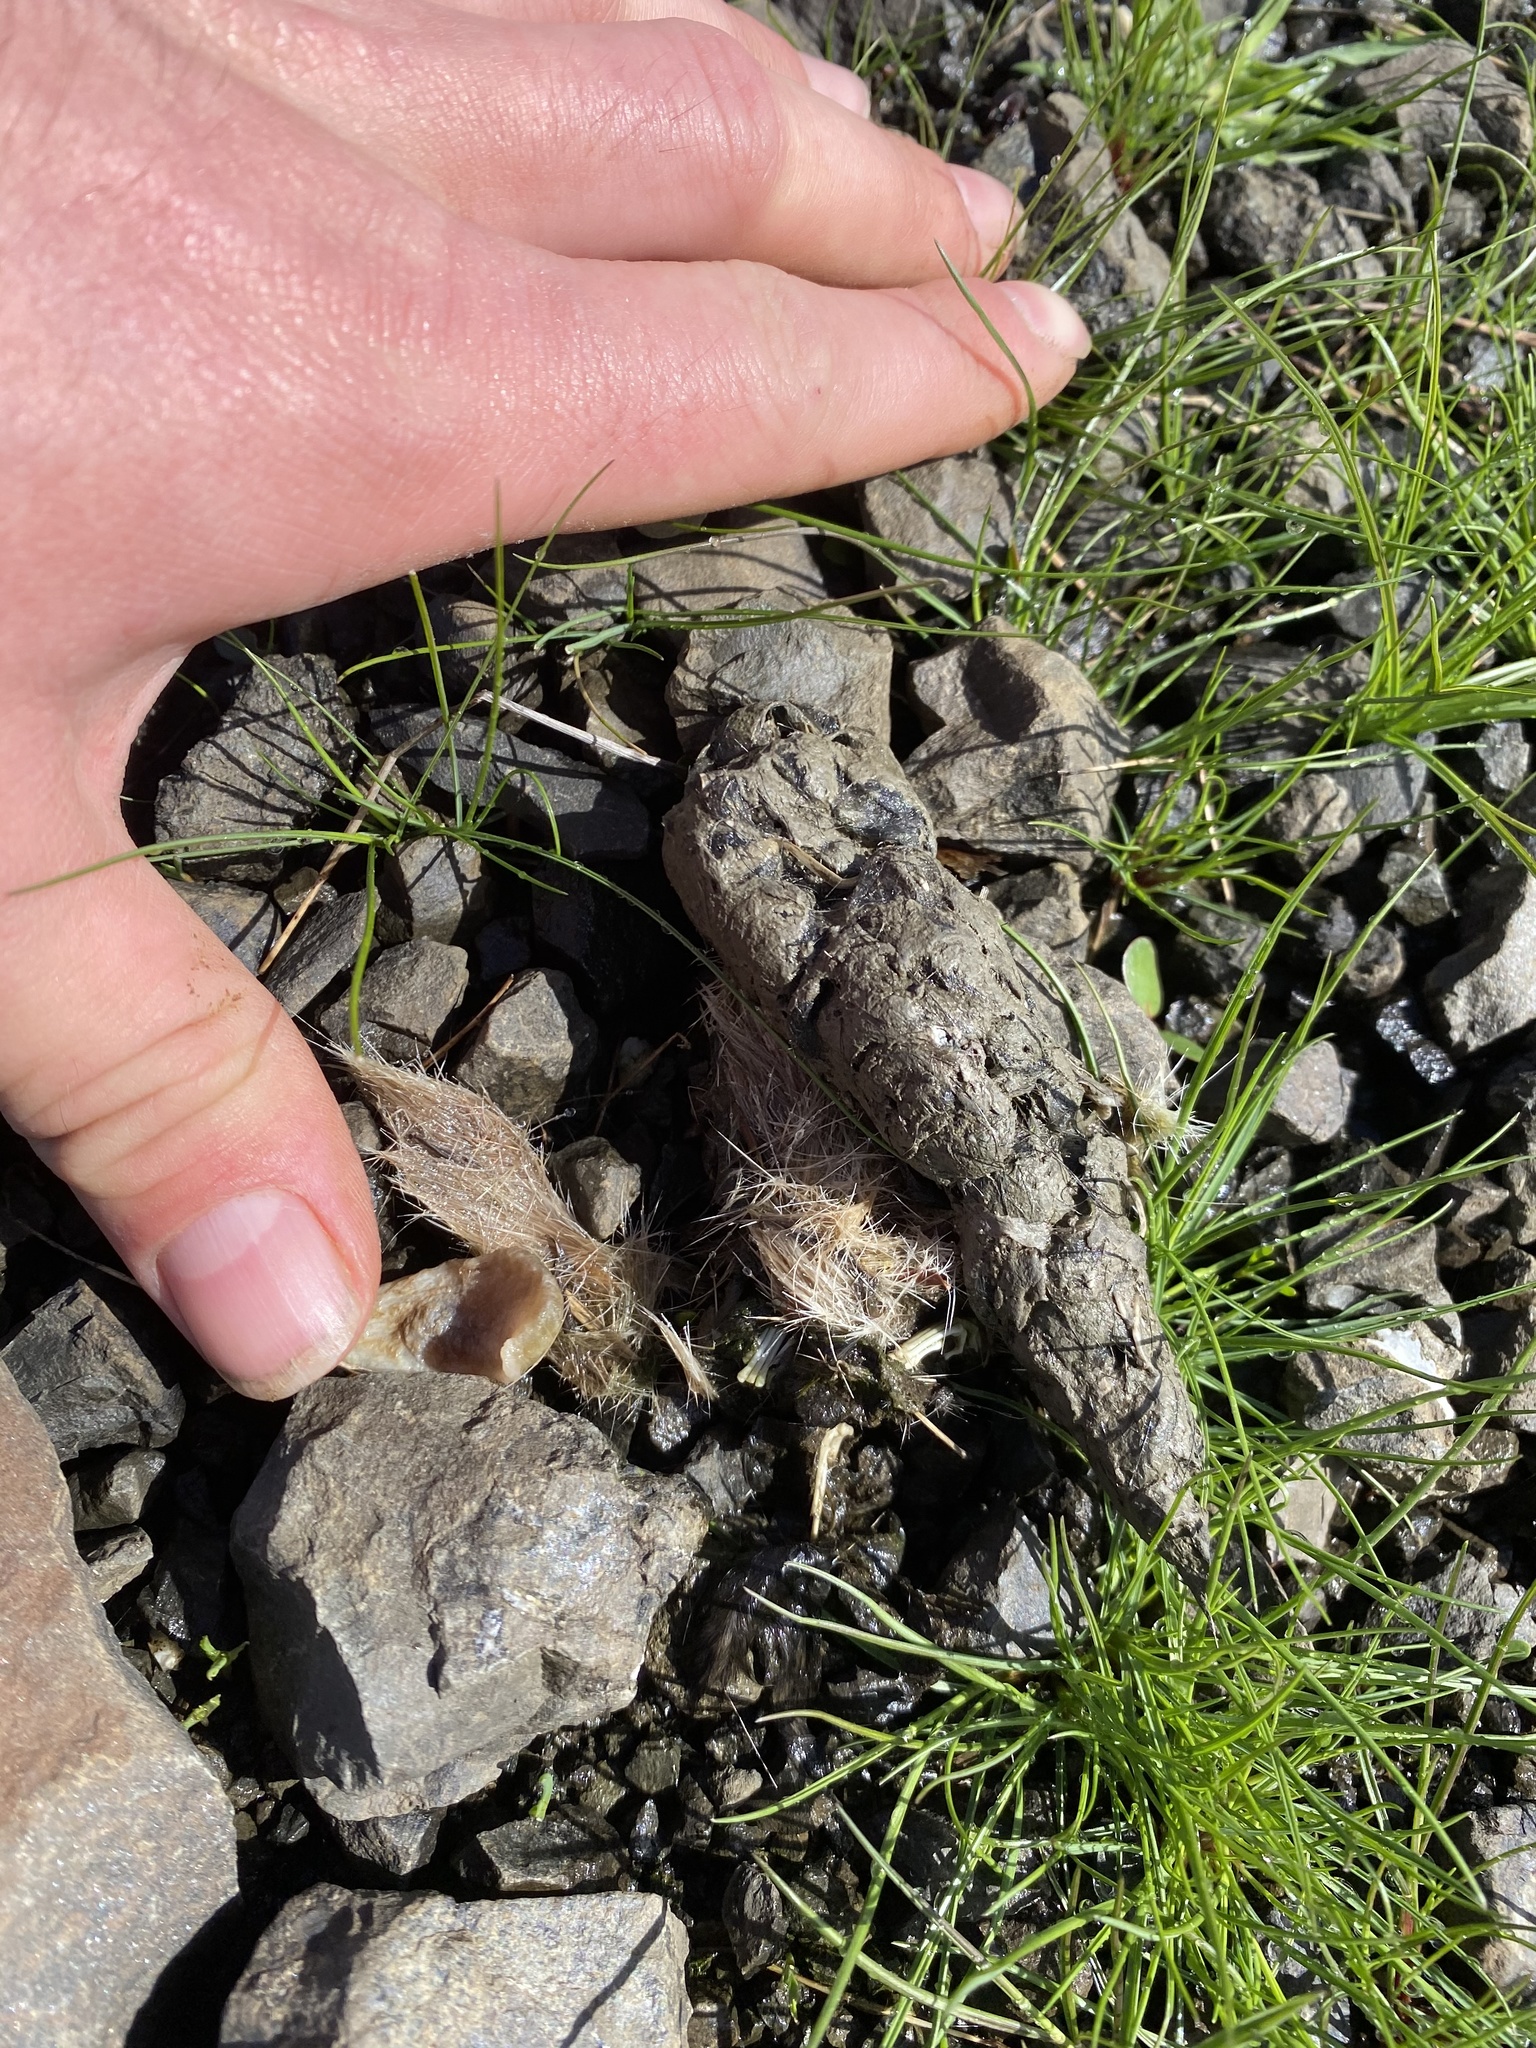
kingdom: Animalia
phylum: Chordata
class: Mammalia
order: Carnivora
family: Canidae
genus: Canis
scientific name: Canis latrans
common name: Coyote
